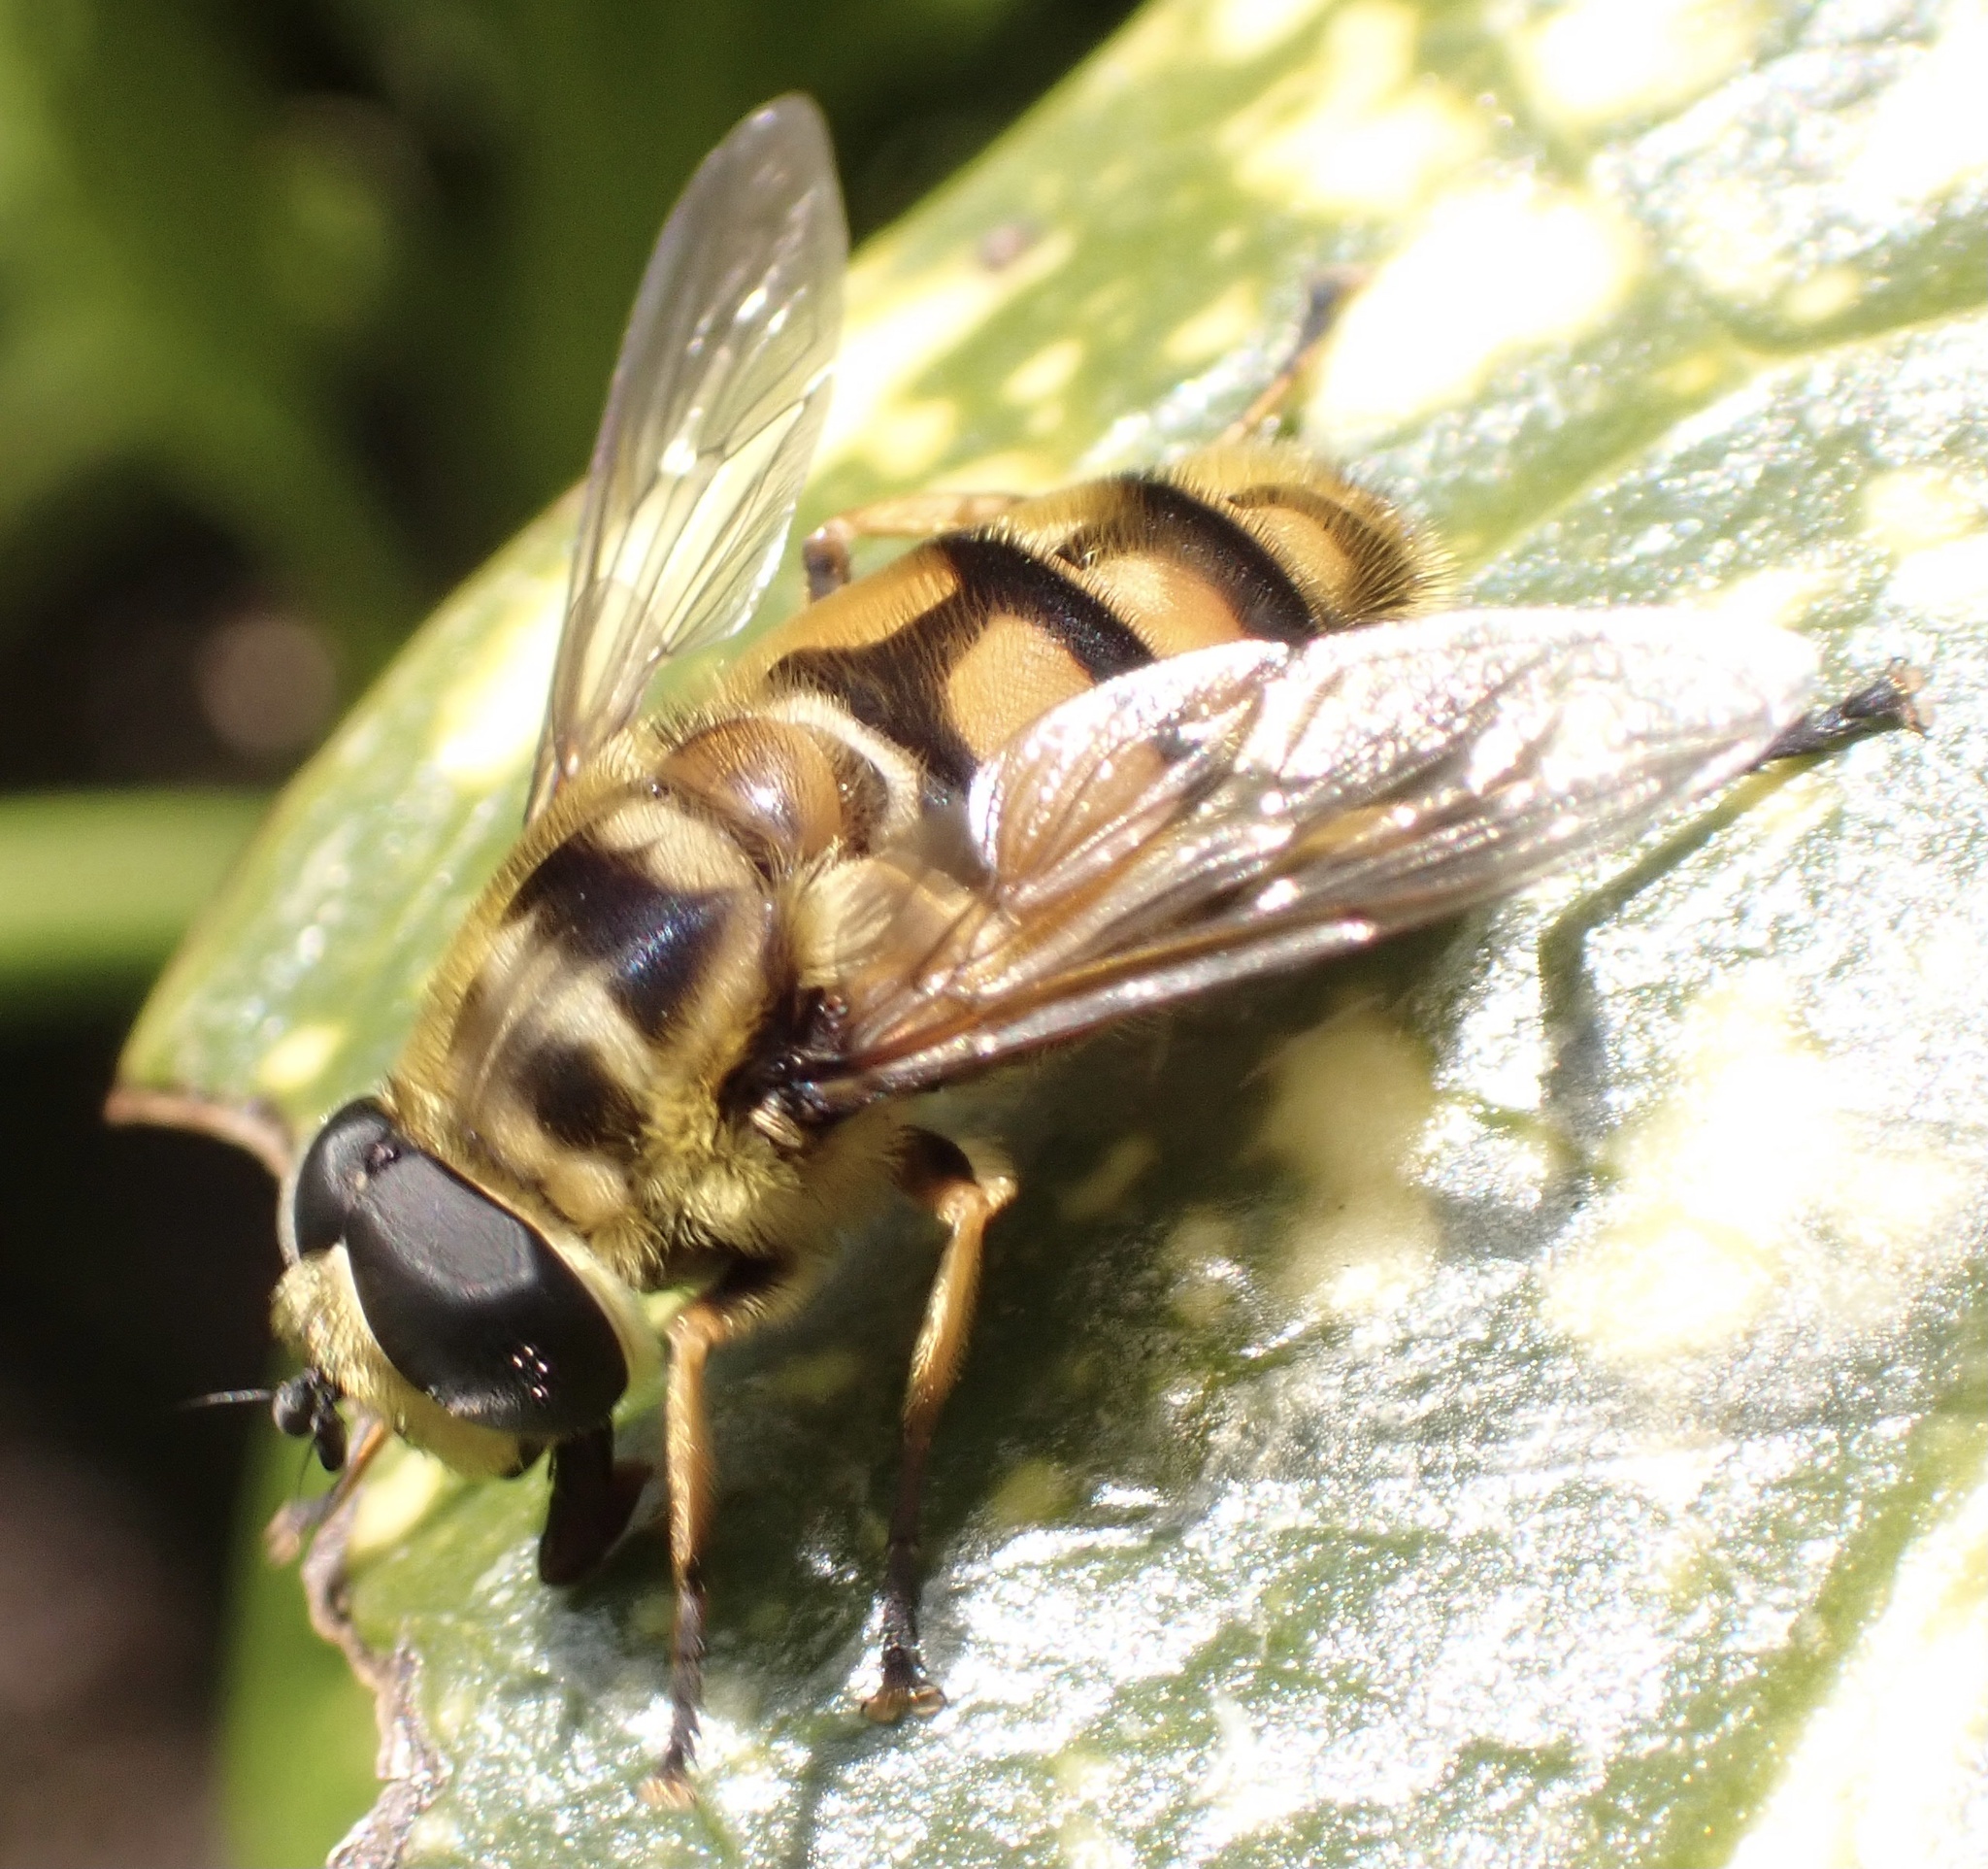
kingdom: Animalia
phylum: Arthropoda
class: Insecta
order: Diptera
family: Syrphidae
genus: Myathropa
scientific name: Myathropa florea
